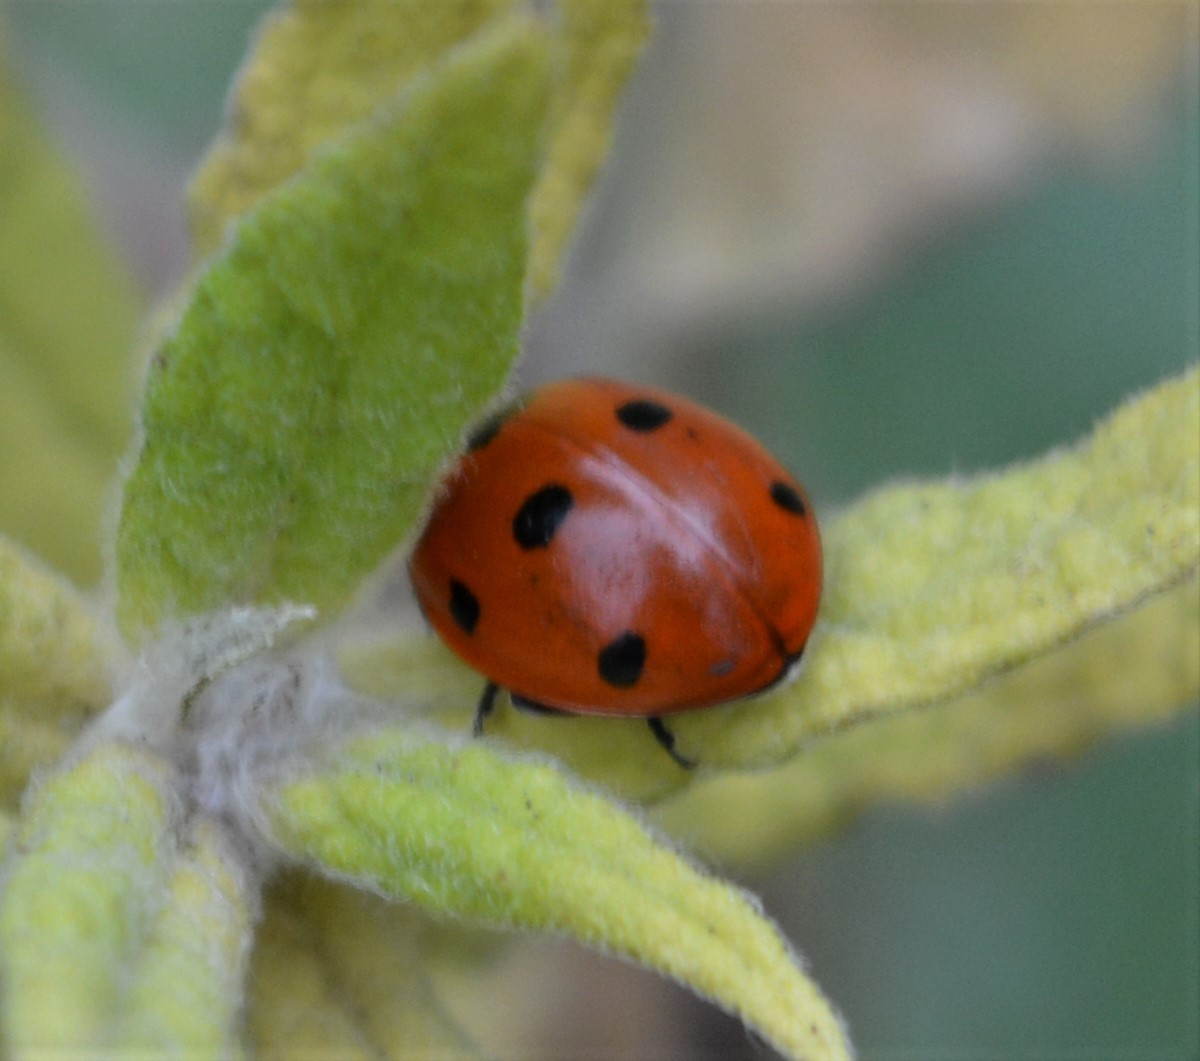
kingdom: Animalia
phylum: Arthropoda
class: Insecta
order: Coleoptera
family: Coccinellidae
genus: Coccinella
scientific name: Coccinella septempunctata
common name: Sevenspotted lady beetle
